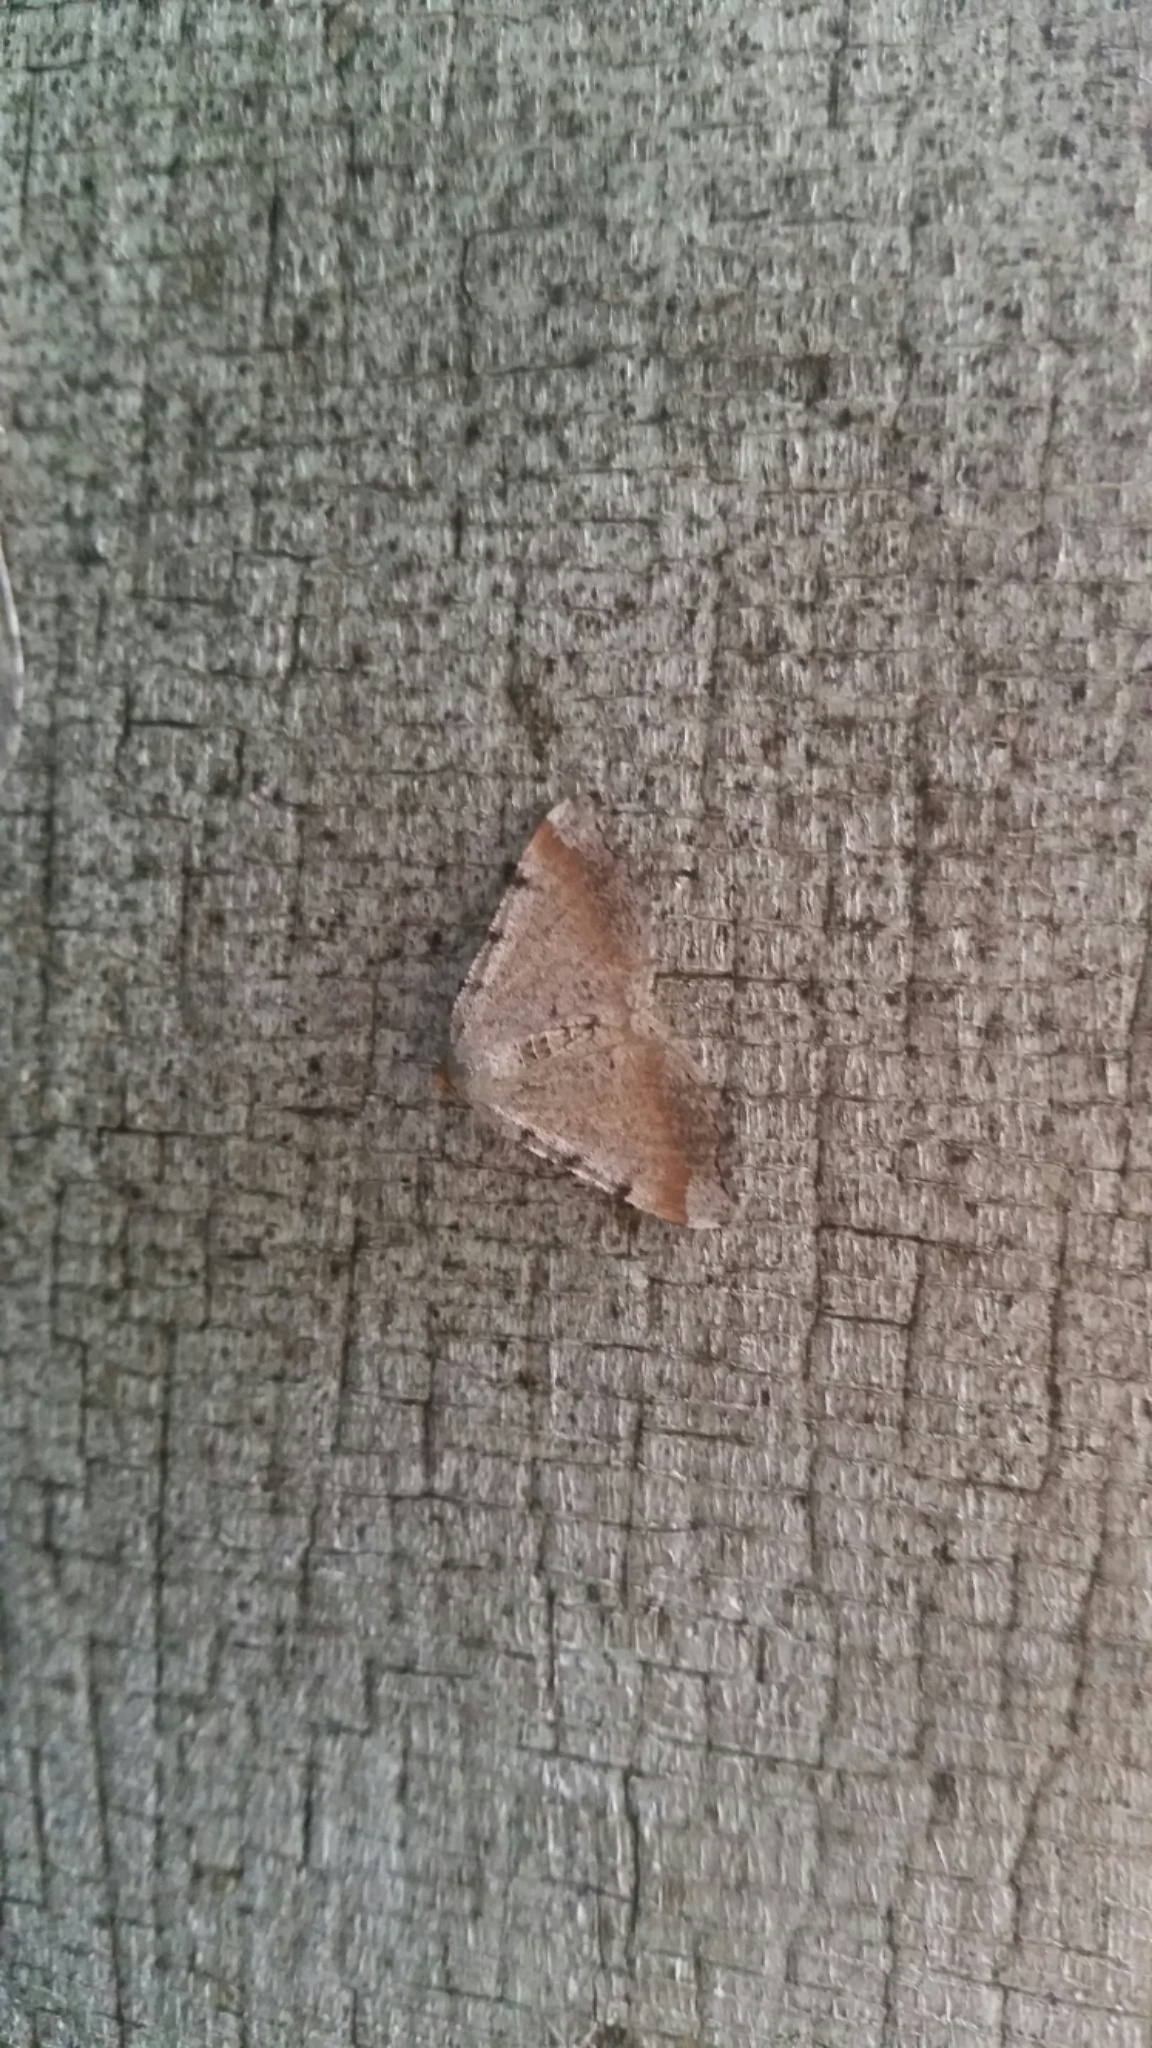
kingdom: Animalia
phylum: Arthropoda
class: Insecta
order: Lepidoptera
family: Geometridae
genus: Macaria
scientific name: Macaria minorata
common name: Minor angle moth
